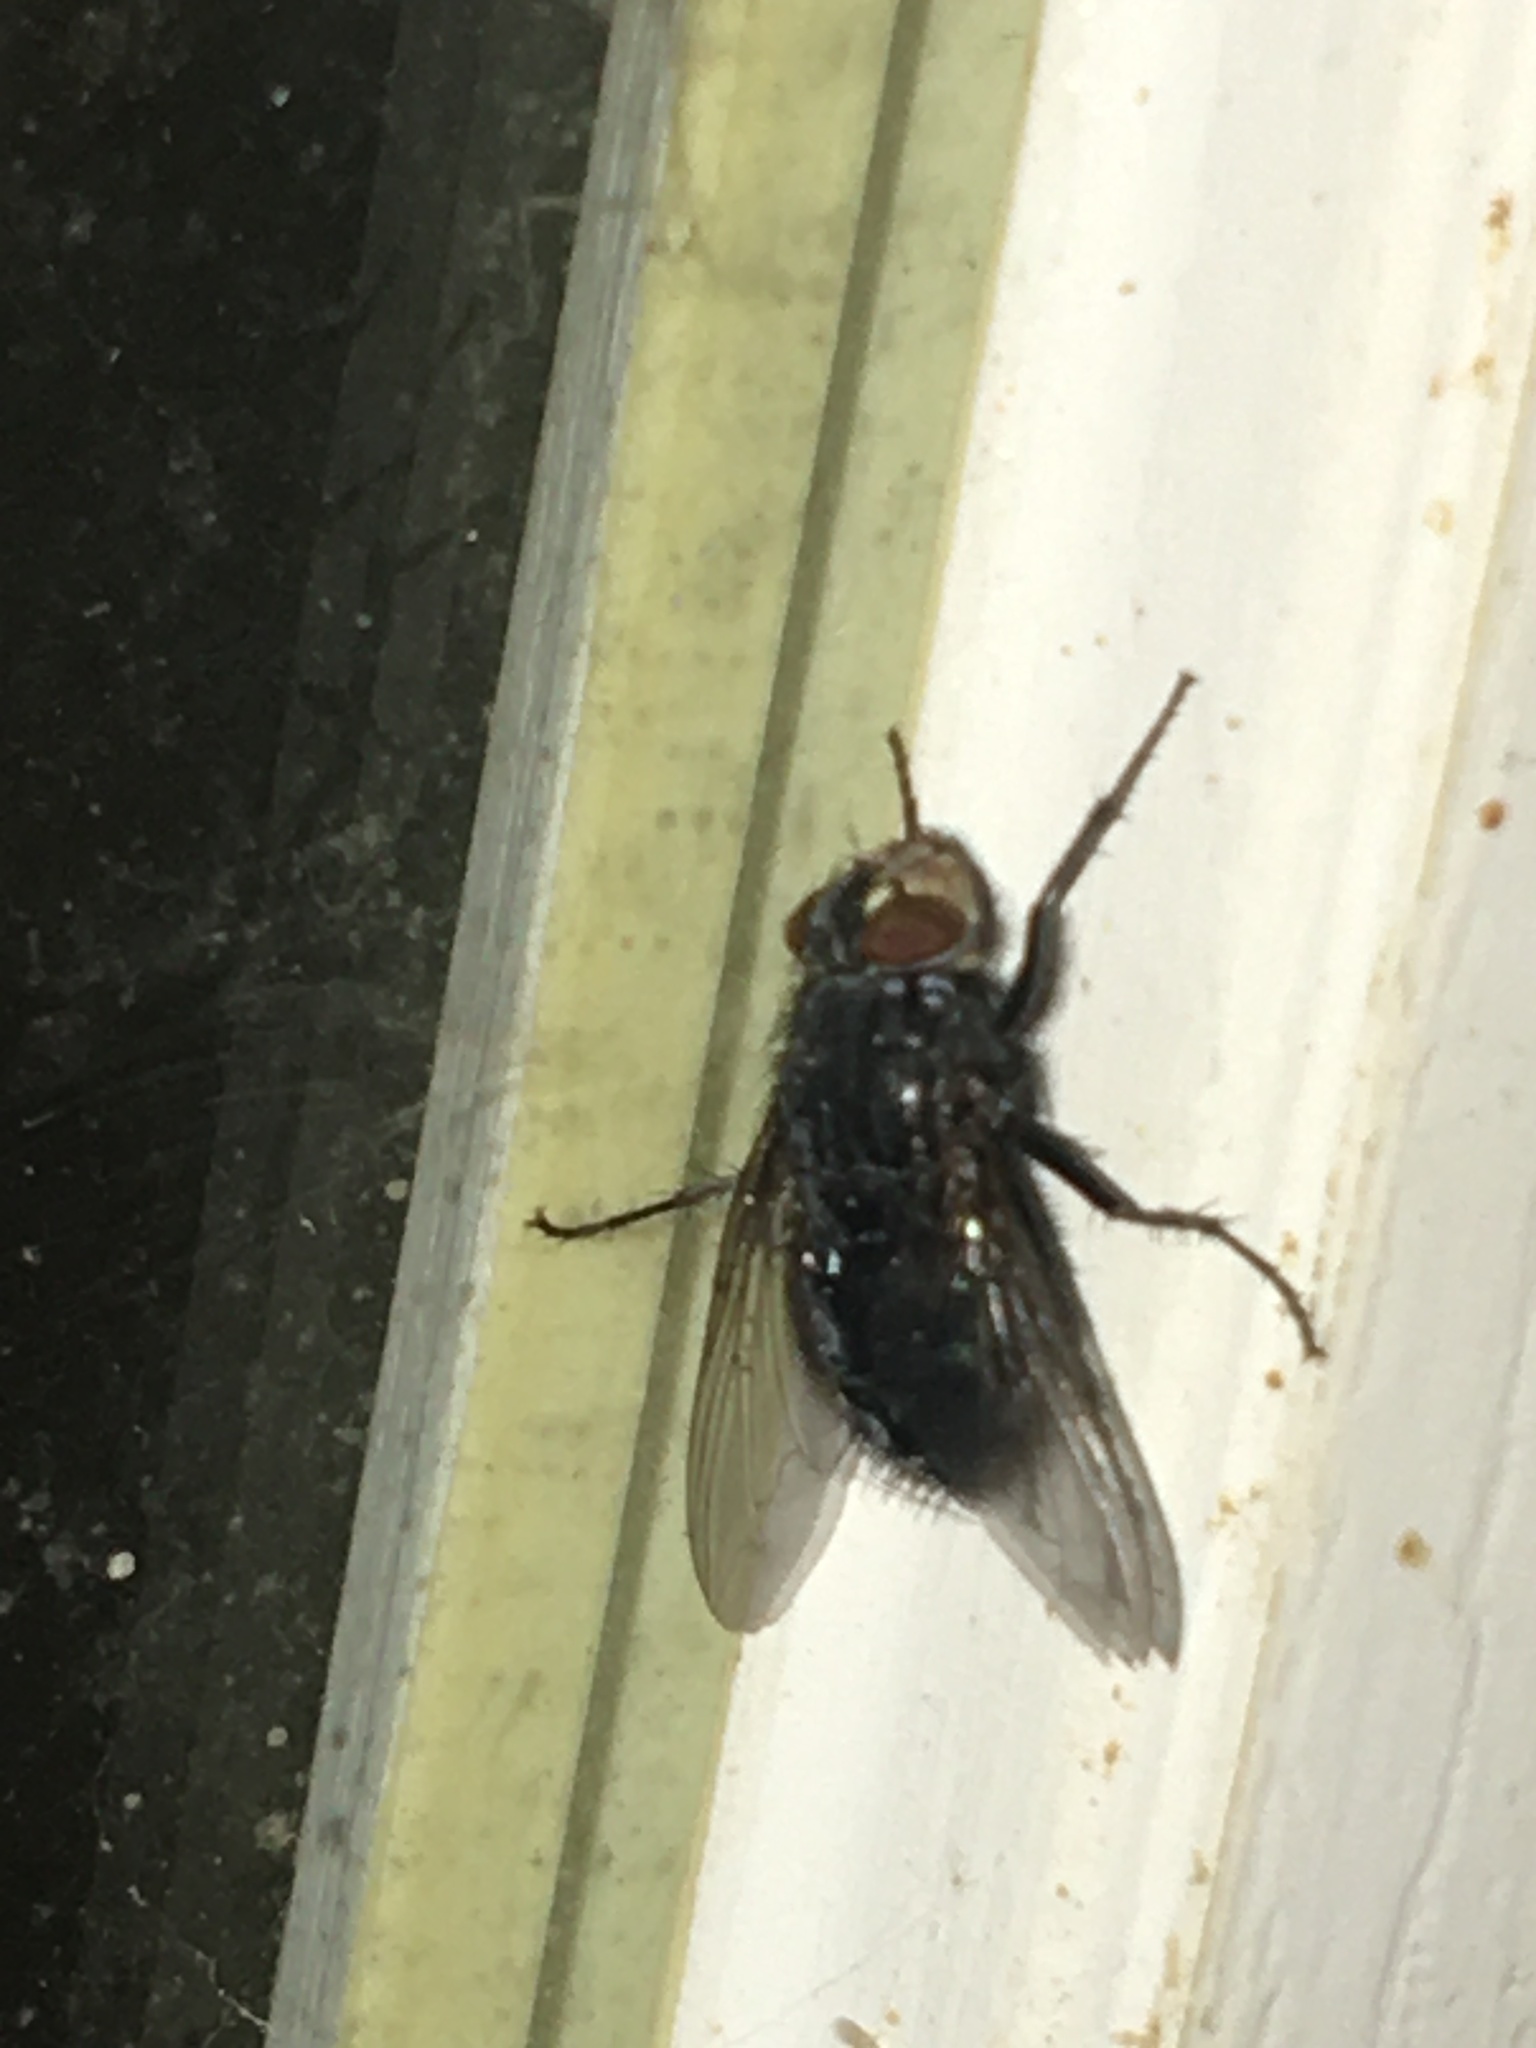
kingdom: Animalia
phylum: Arthropoda
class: Insecta
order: Diptera
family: Calliphoridae
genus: Calliphora
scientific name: Calliphora vicina
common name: Common blow flie
